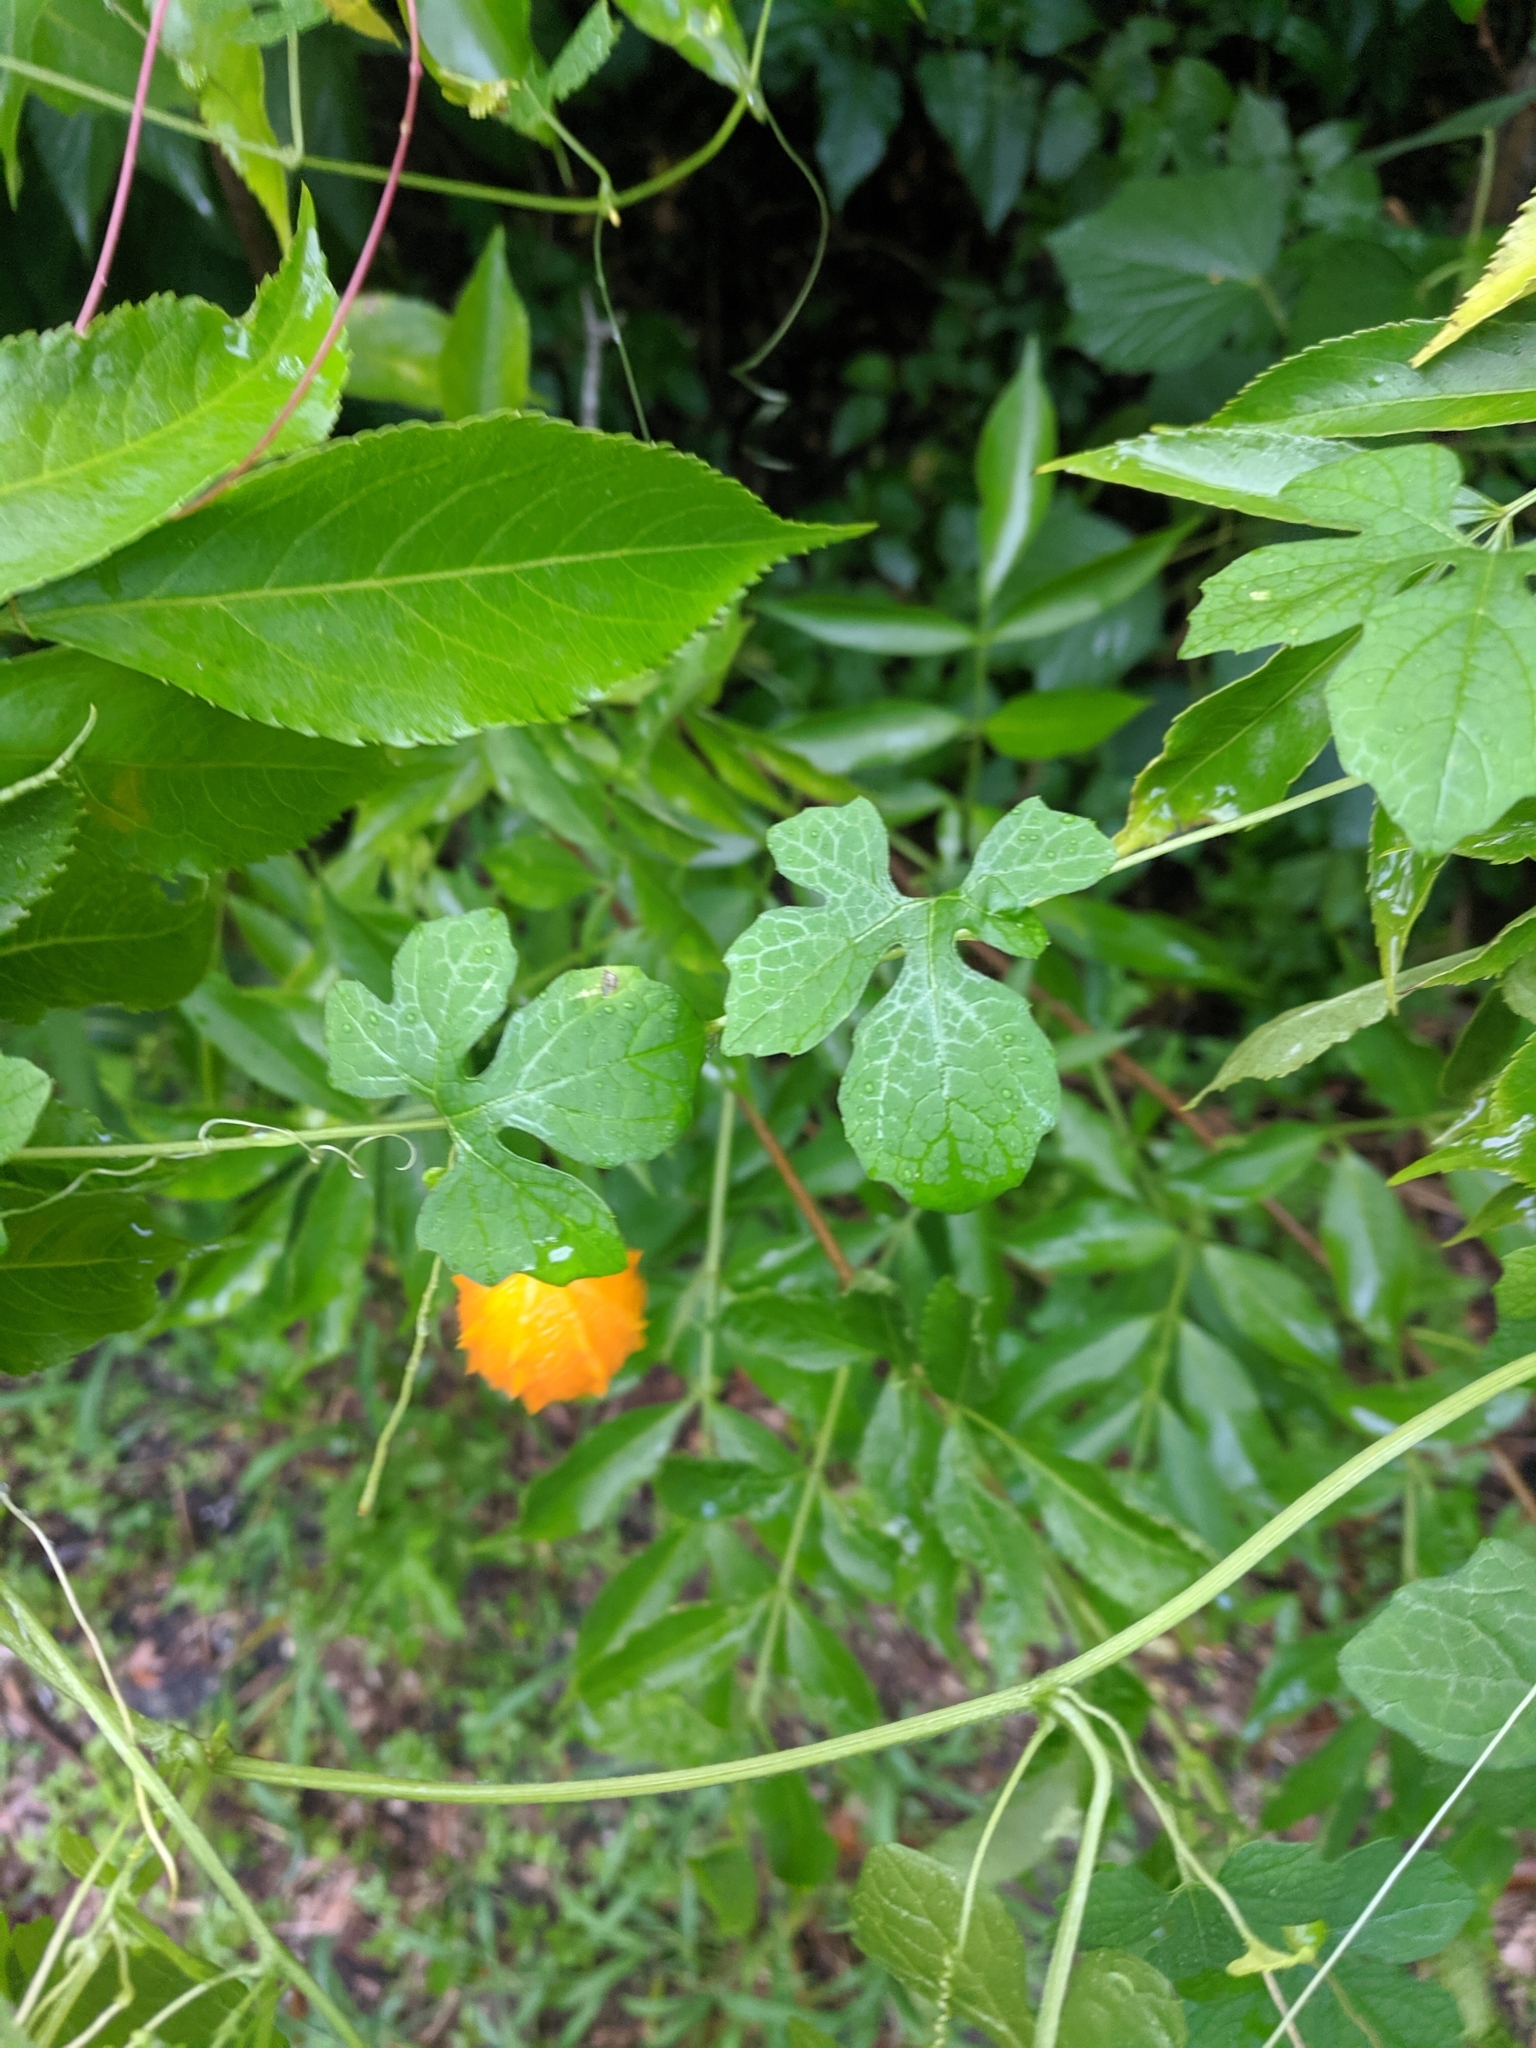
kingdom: Plantae
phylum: Tracheophyta
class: Magnoliopsida
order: Cucurbitales
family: Cucurbitaceae
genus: Momordica
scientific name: Momordica charantia
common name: Balsampear
